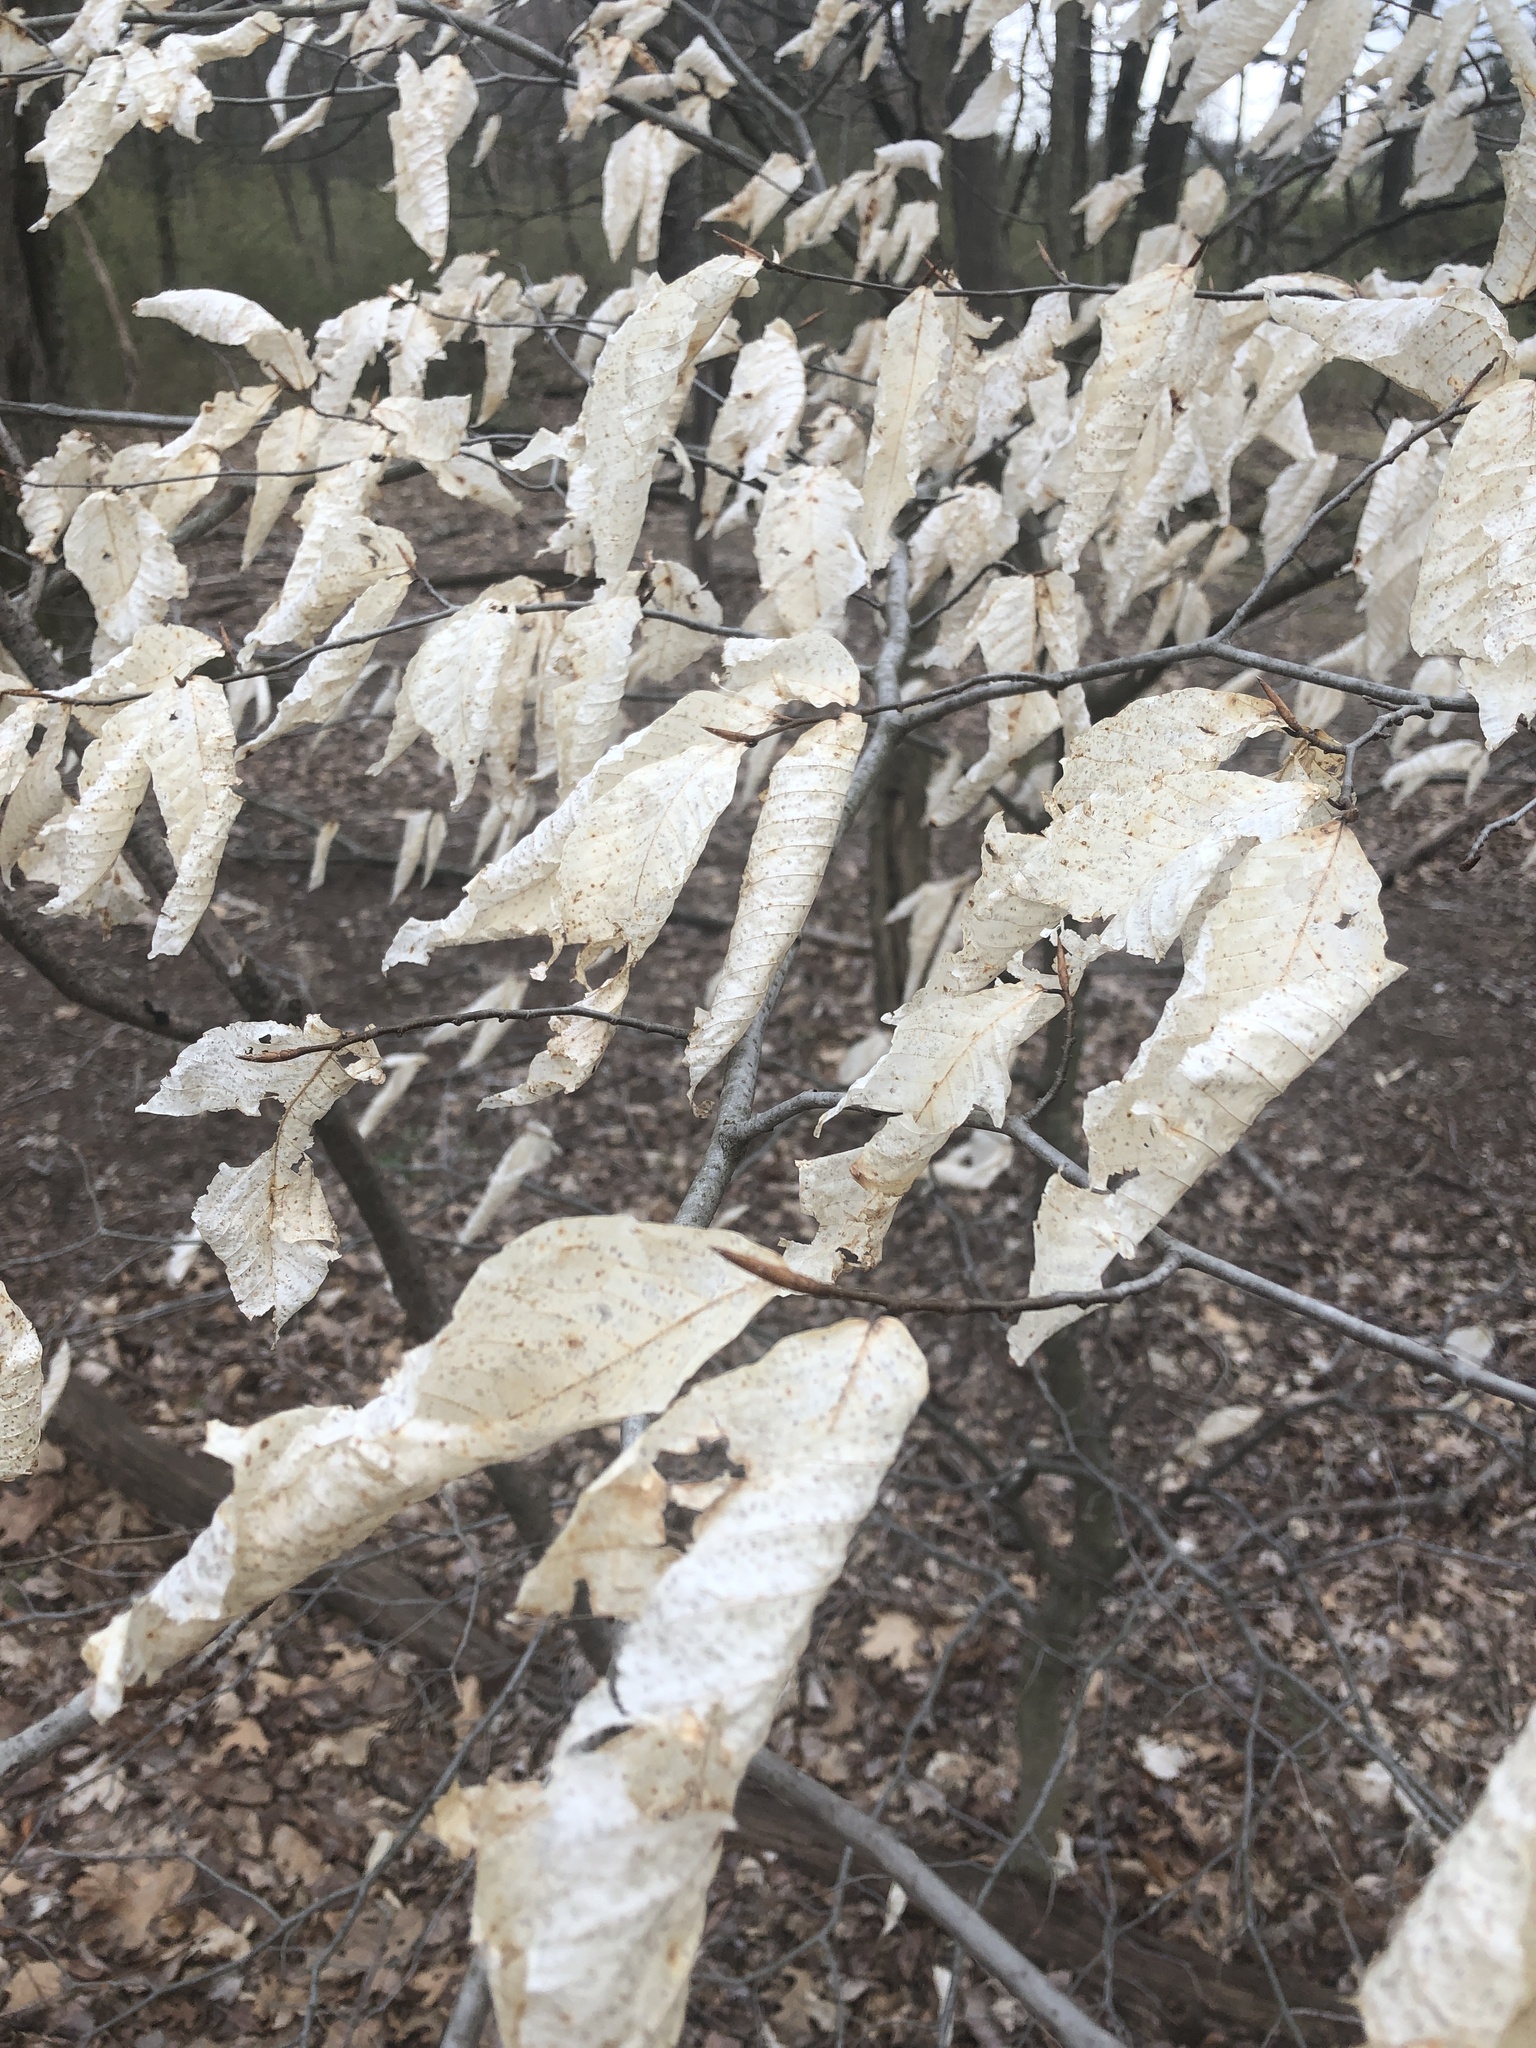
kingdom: Plantae
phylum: Tracheophyta
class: Magnoliopsida
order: Fagales
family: Fagaceae
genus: Fagus
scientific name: Fagus grandifolia
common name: American beech
